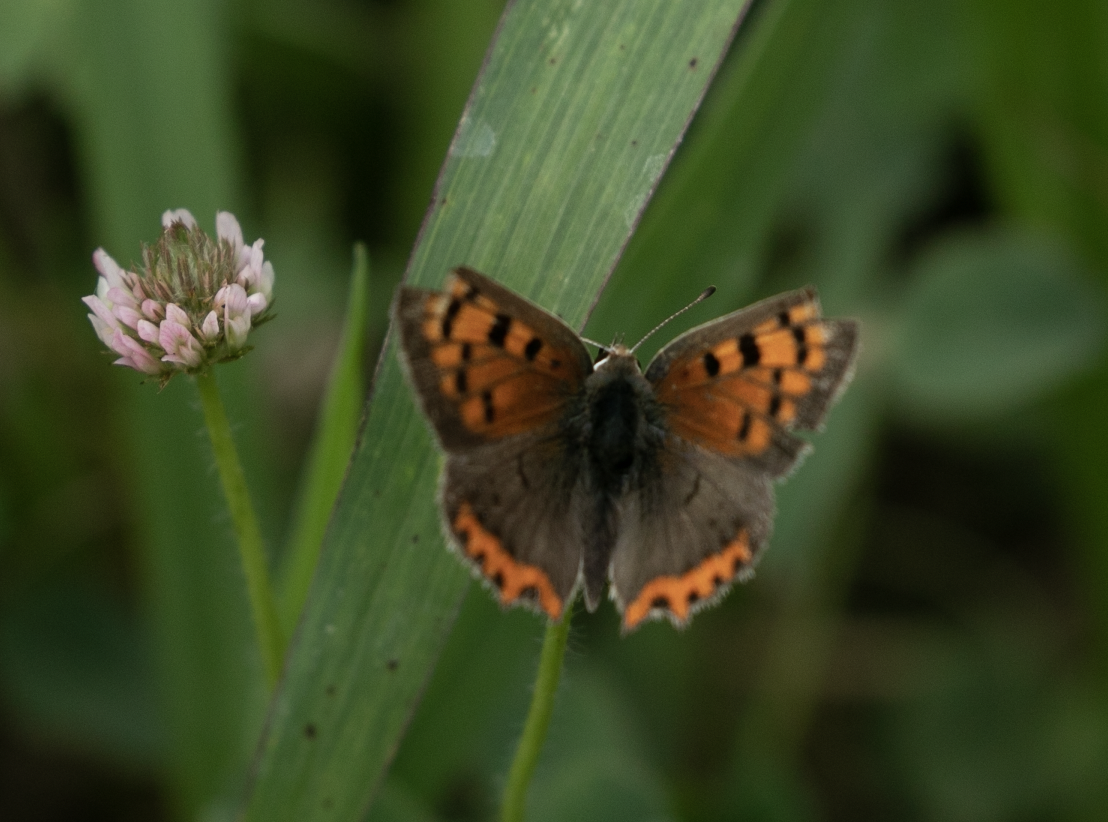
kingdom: Animalia
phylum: Arthropoda
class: Insecta
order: Lepidoptera
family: Lycaenidae
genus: Lycaena
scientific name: Lycaena phlaeas
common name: Small copper
